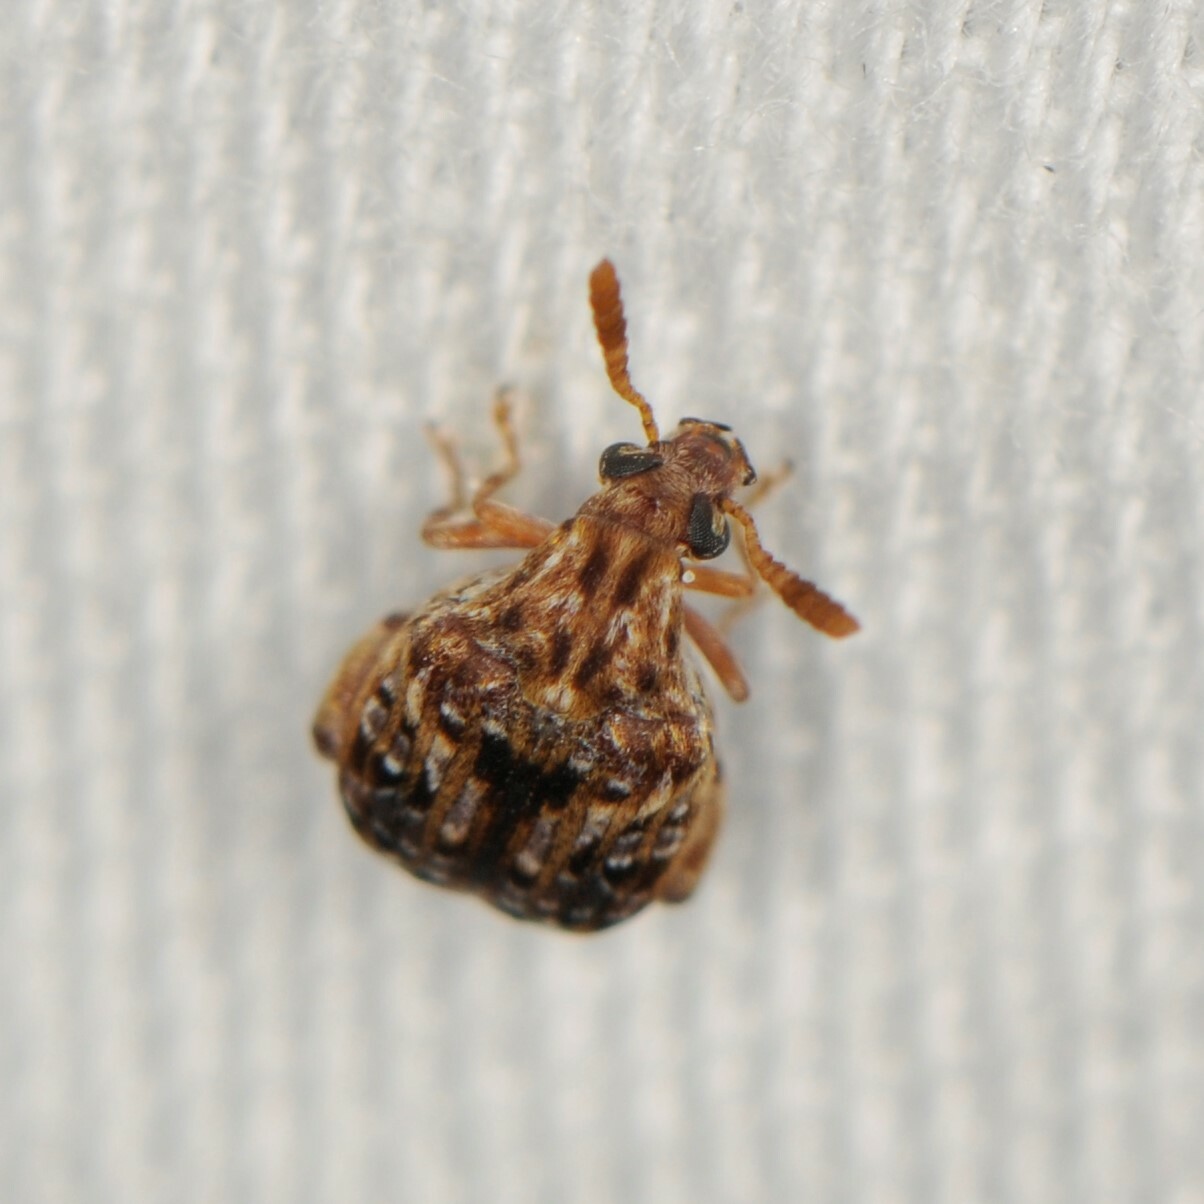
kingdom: Animalia
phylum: Arthropoda
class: Insecta
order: Coleoptera
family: Chrysomelidae
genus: Gibbobruchus
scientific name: Gibbobruchus mimus
